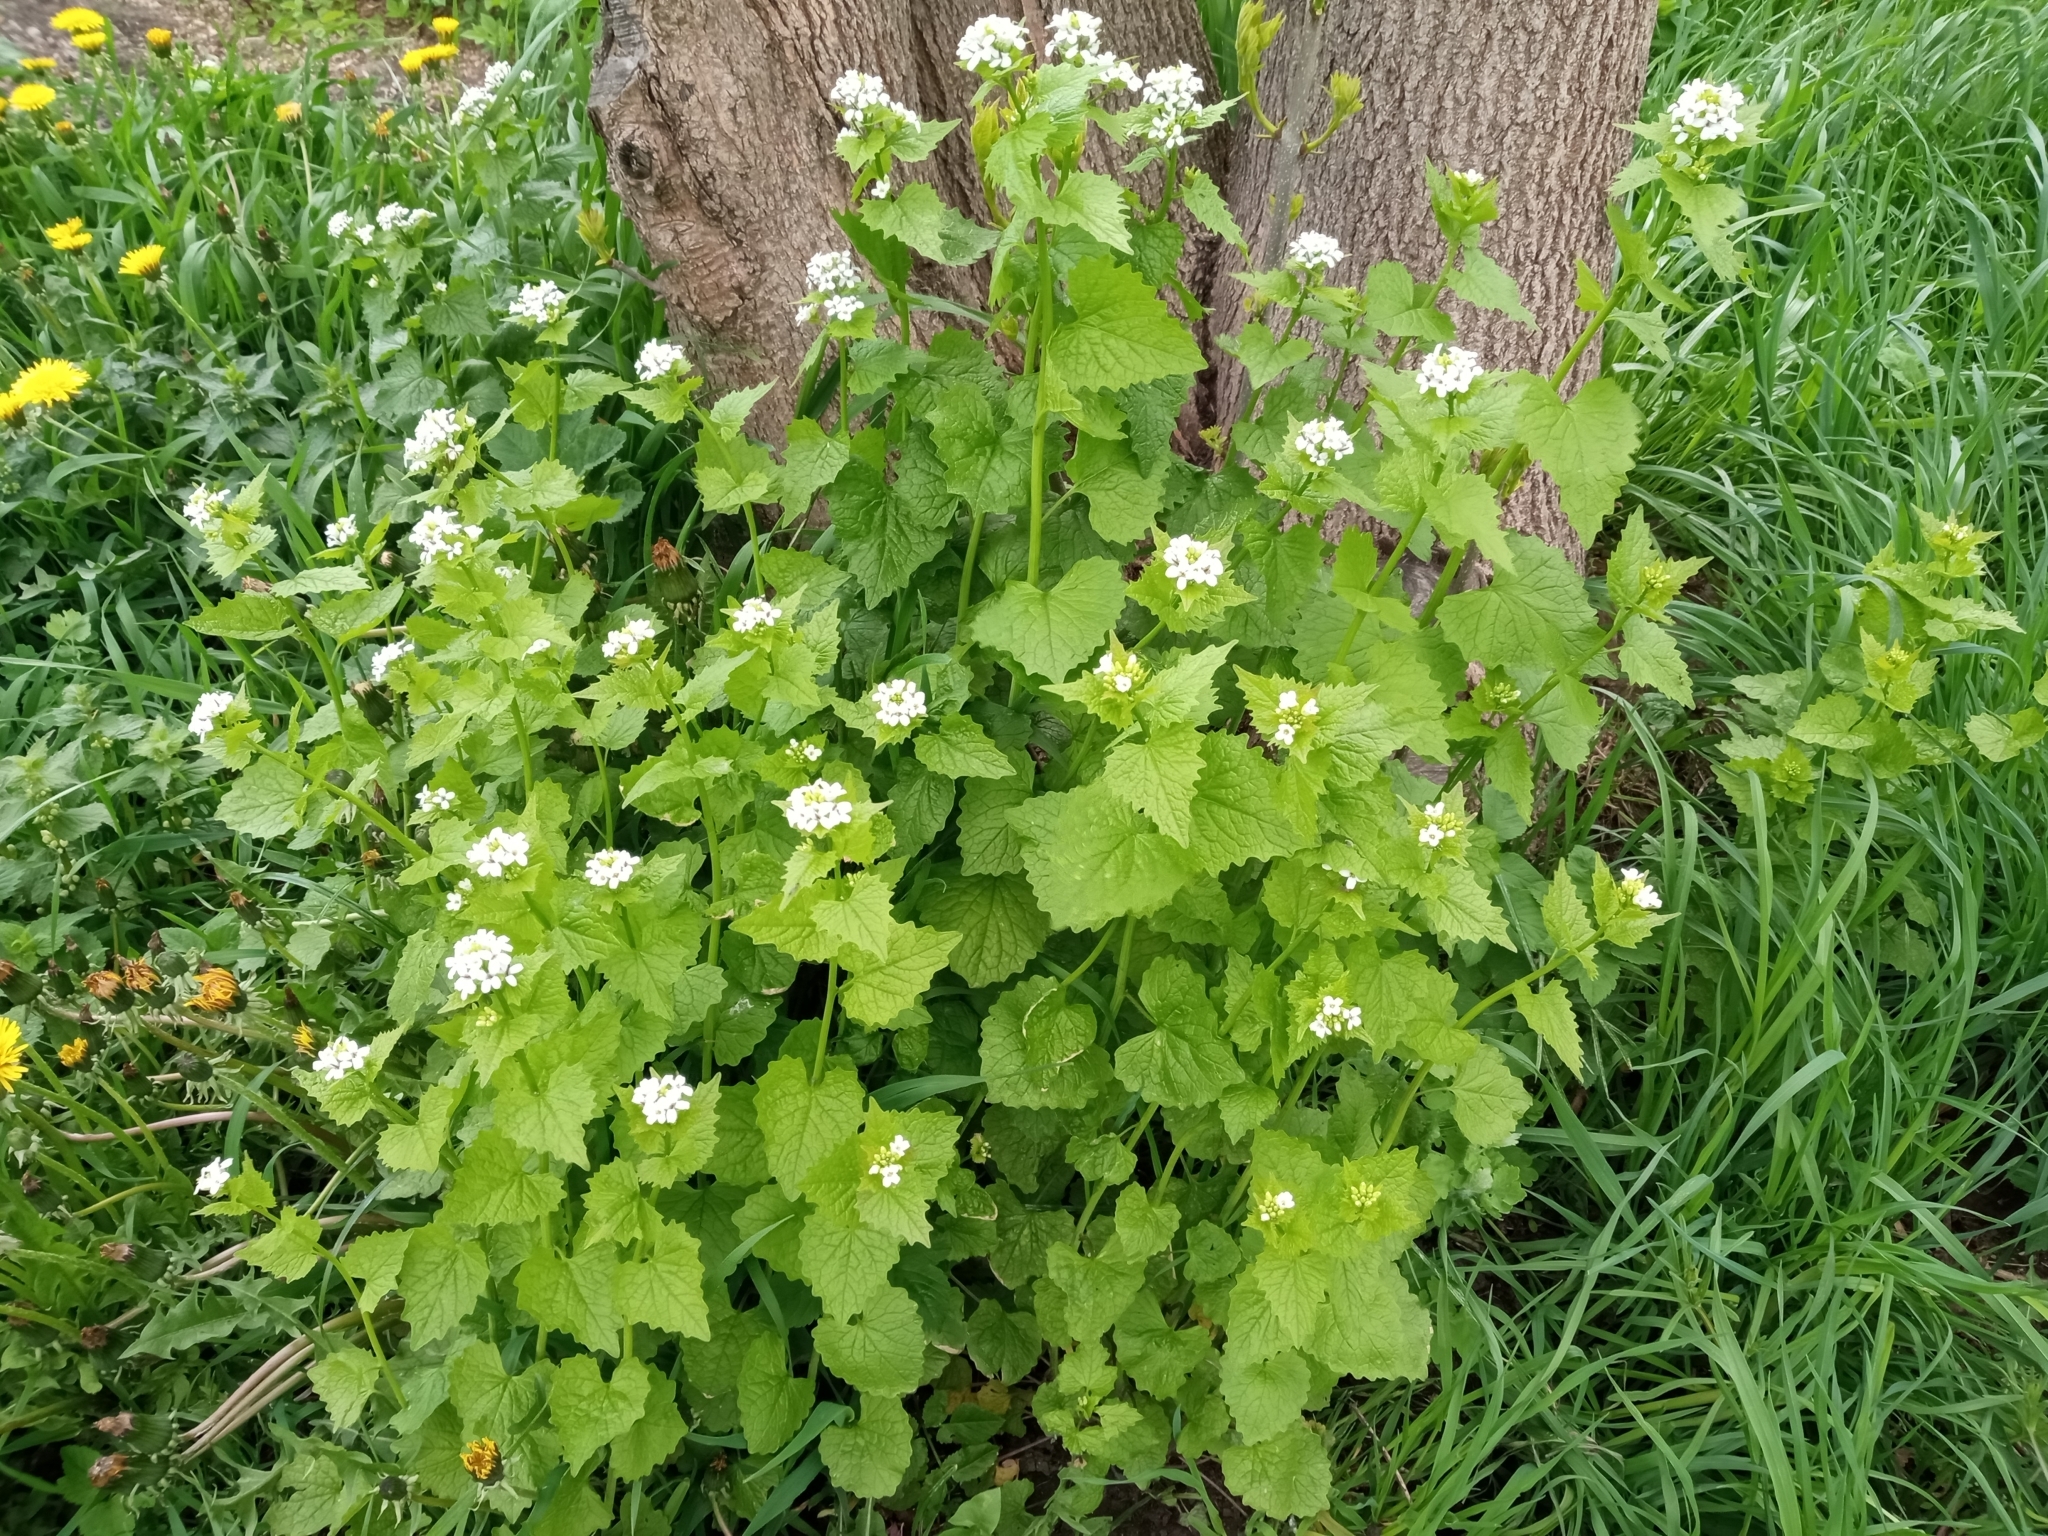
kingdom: Plantae
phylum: Tracheophyta
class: Magnoliopsida
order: Brassicales
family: Brassicaceae
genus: Alliaria
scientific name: Alliaria petiolata
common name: Garlic mustard
